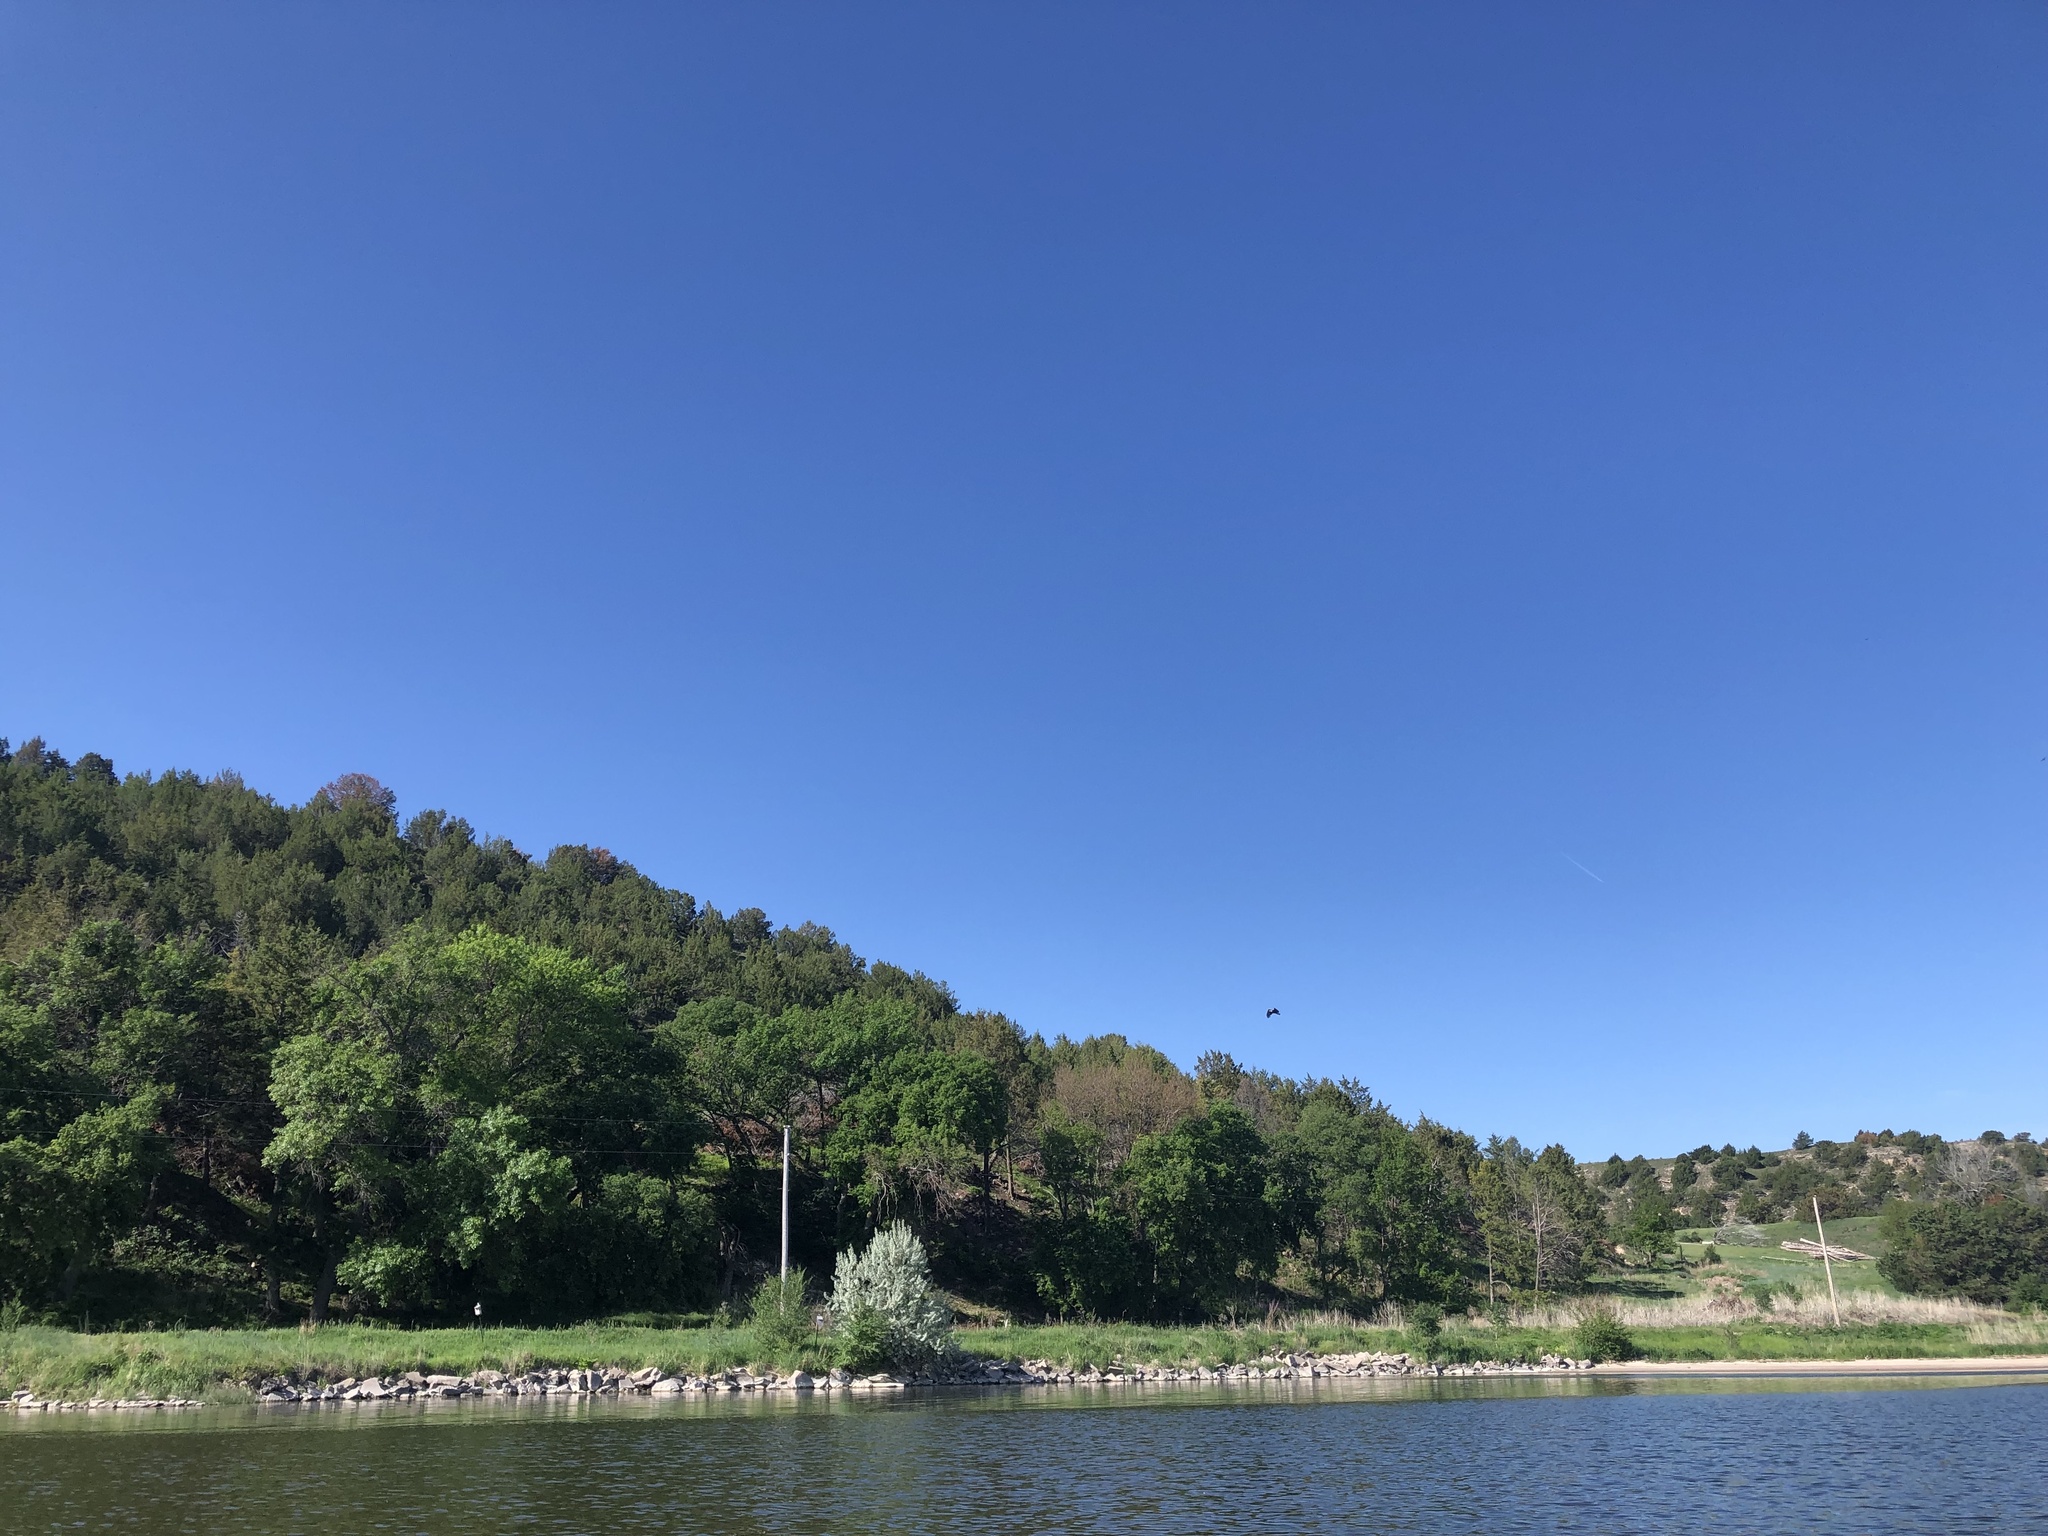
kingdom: Animalia
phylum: Chordata
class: Aves
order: Accipitriformes
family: Accipitridae
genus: Haliaeetus
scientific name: Haliaeetus leucocephalus
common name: Bald eagle
